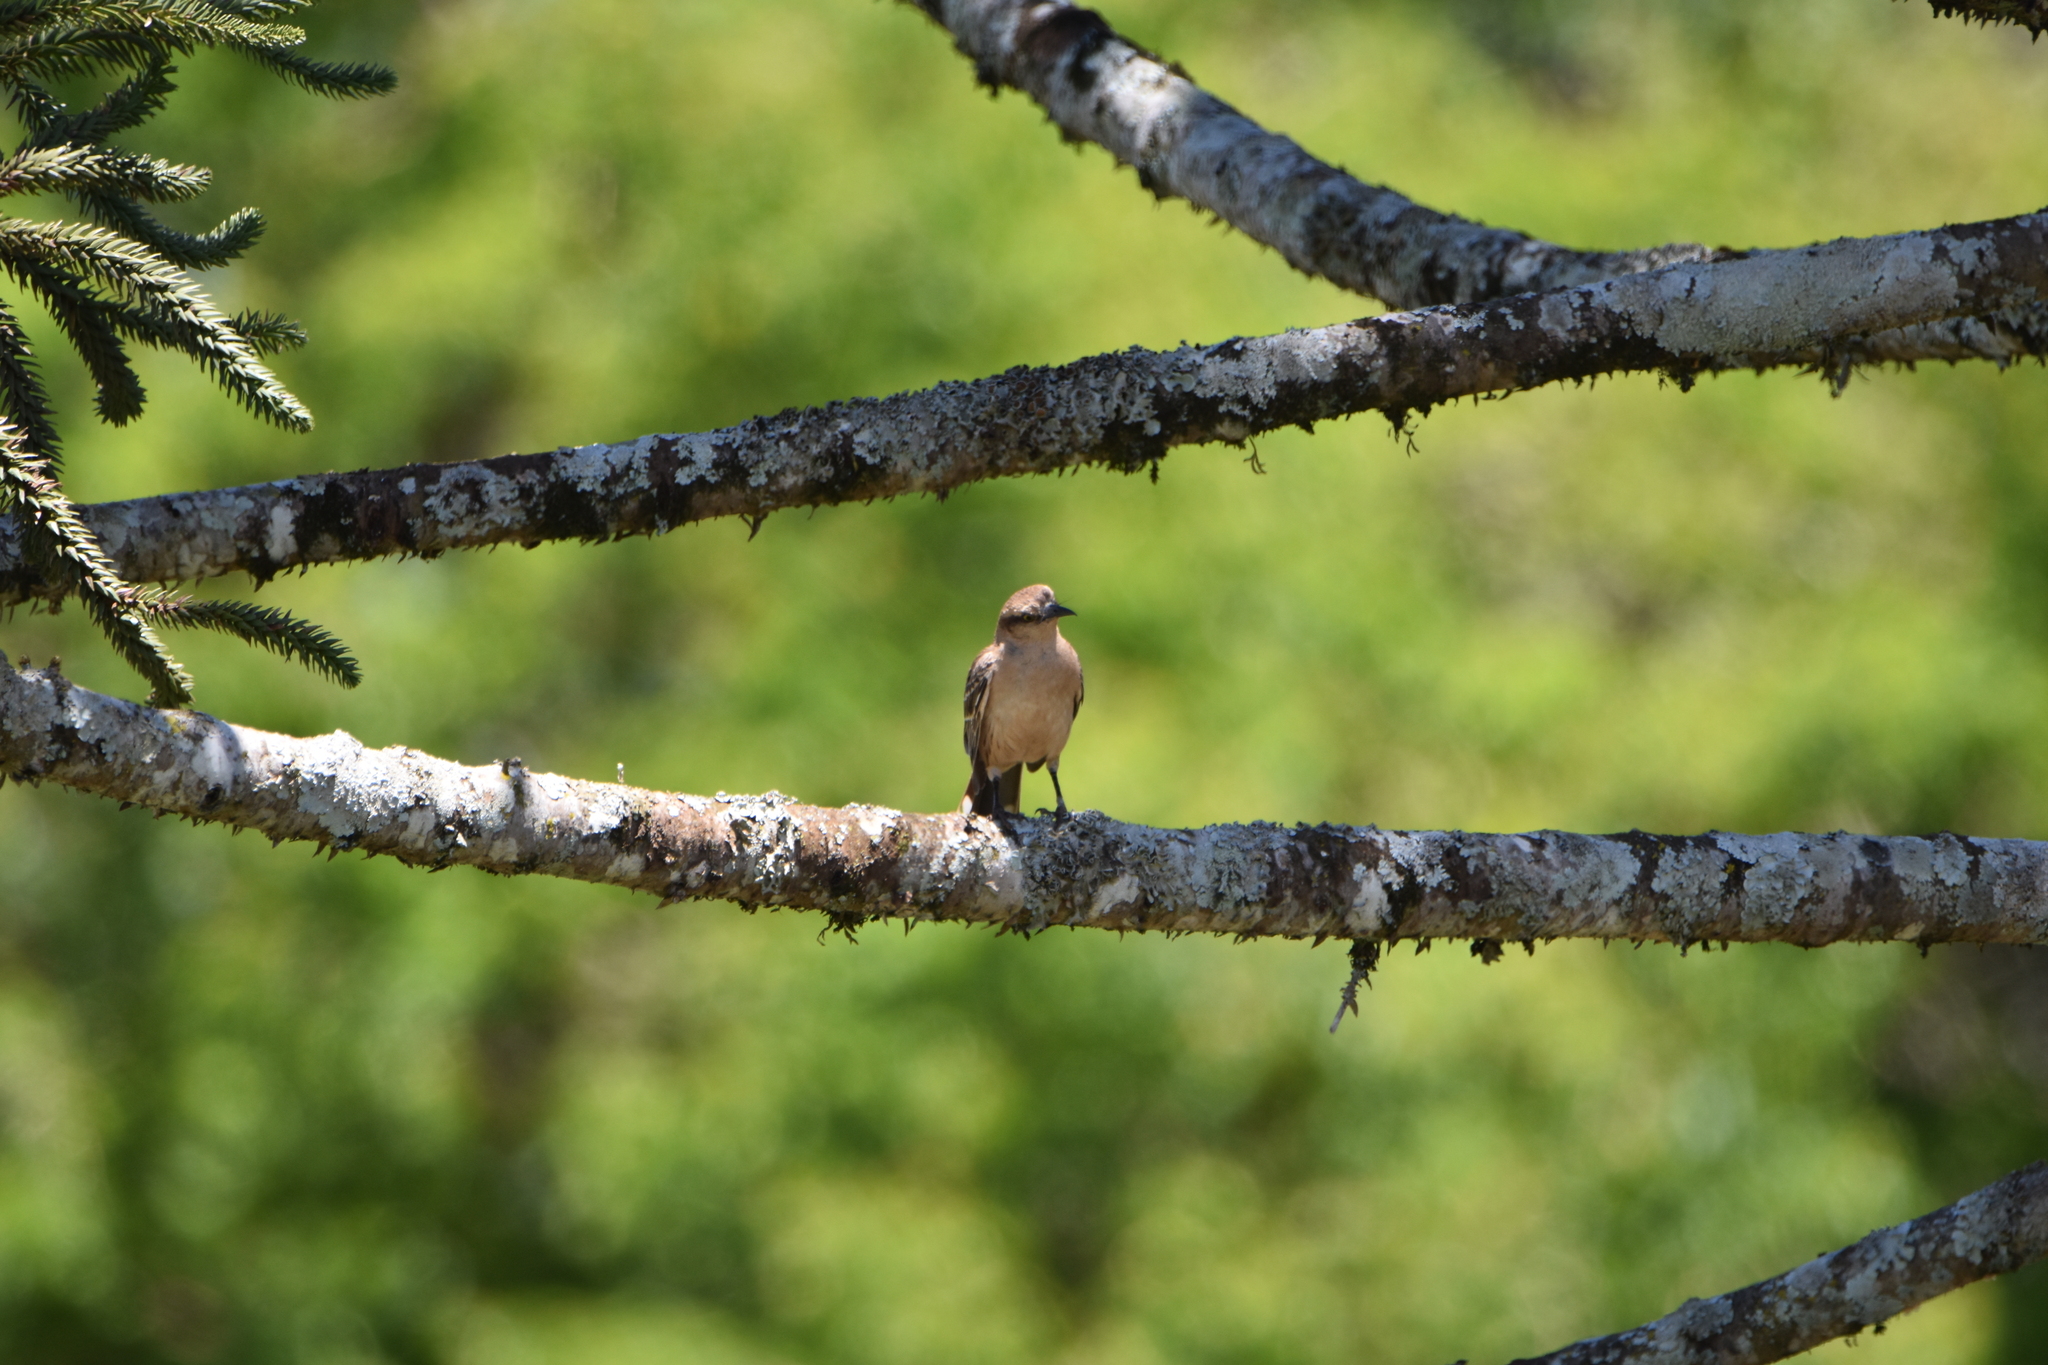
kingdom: Animalia
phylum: Chordata
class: Aves
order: Passeriformes
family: Mimidae
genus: Mimus
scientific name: Mimus saturninus
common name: Chalk-browed mockingbird
